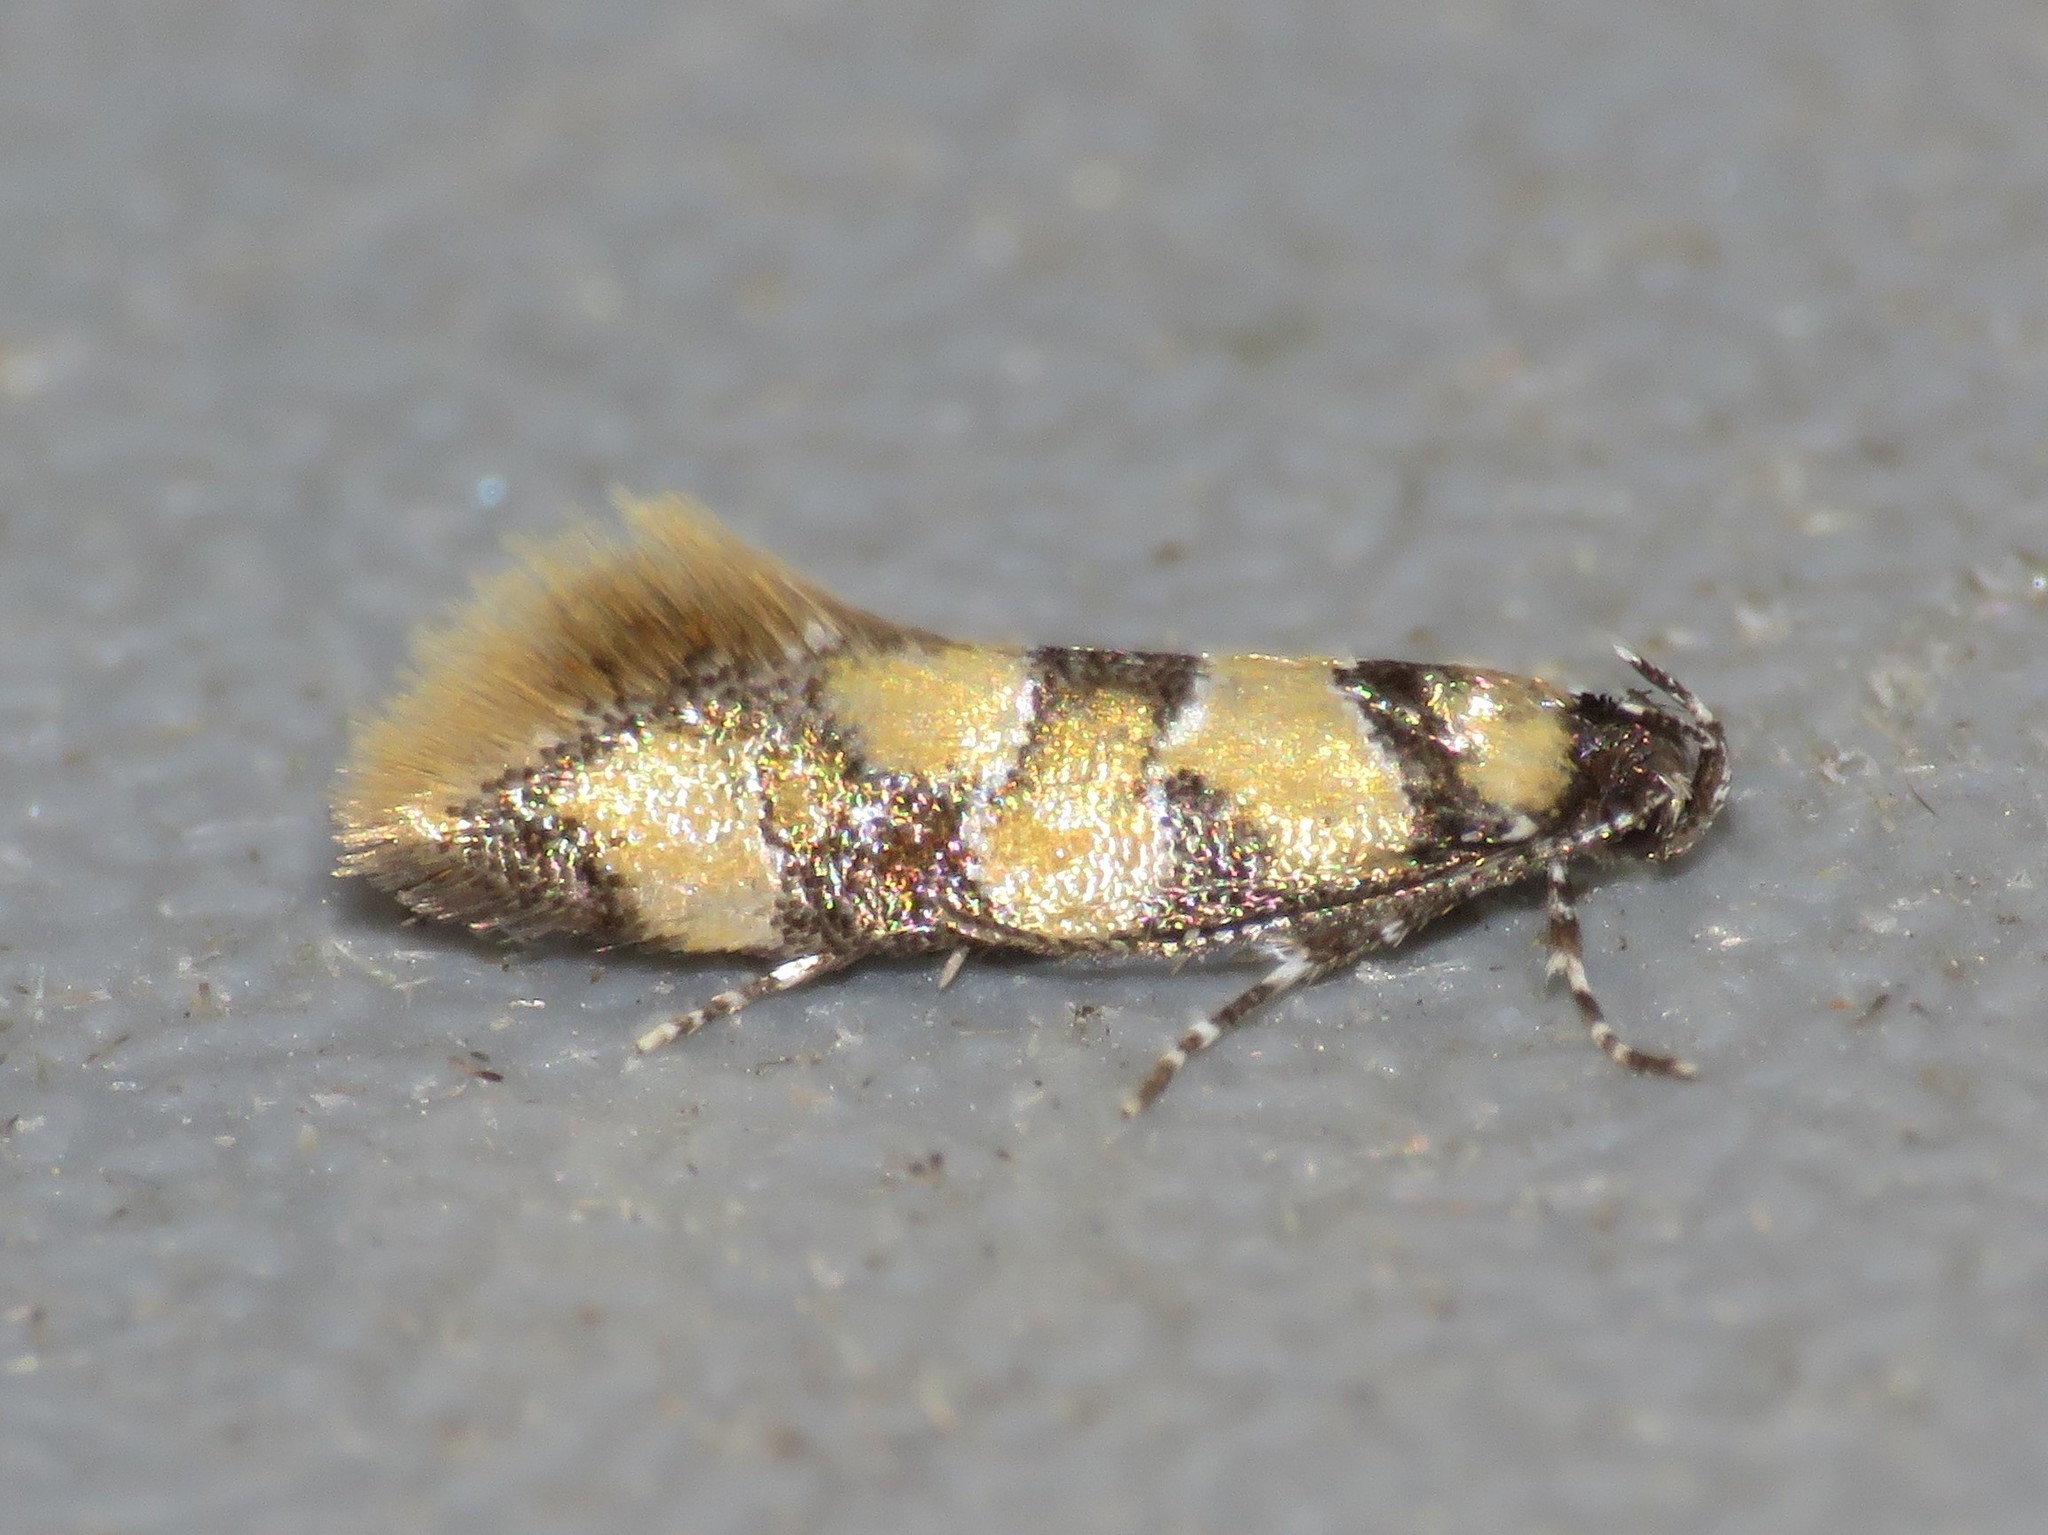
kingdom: Animalia
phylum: Arthropoda
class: Insecta
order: Lepidoptera
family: Oecophoridae
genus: Decantha
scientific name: Decantha borkhausenii
